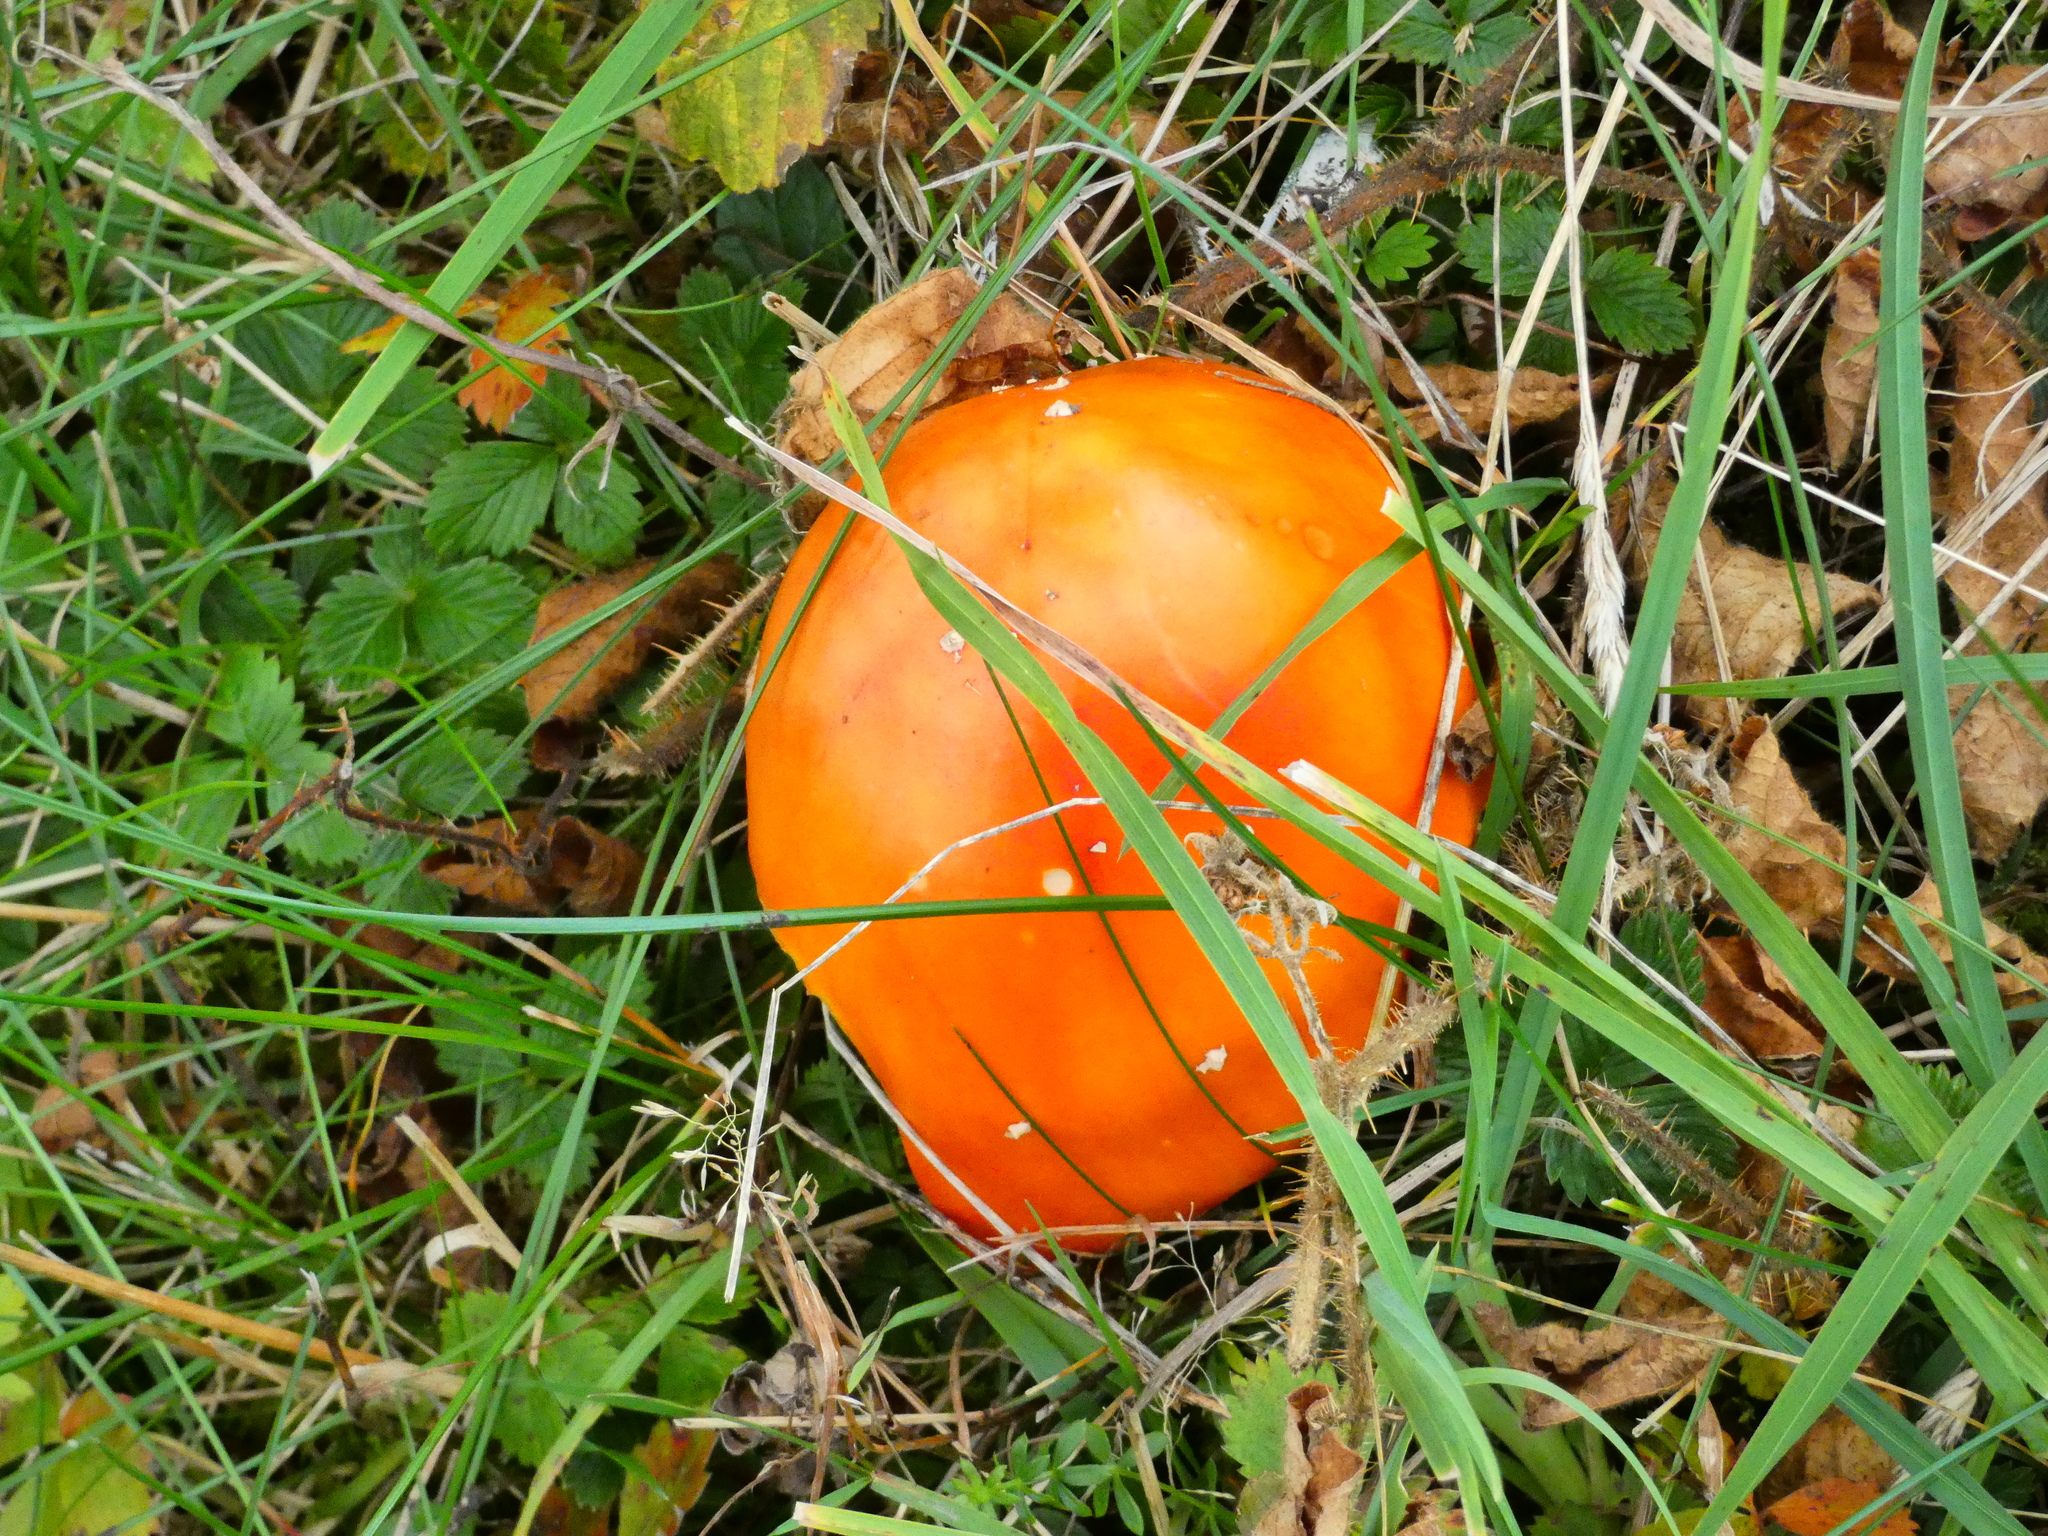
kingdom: Fungi
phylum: Basidiomycota
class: Agaricomycetes
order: Agaricales
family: Amanitaceae
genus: Amanita
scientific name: Amanita muscaria
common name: Fly agaric
